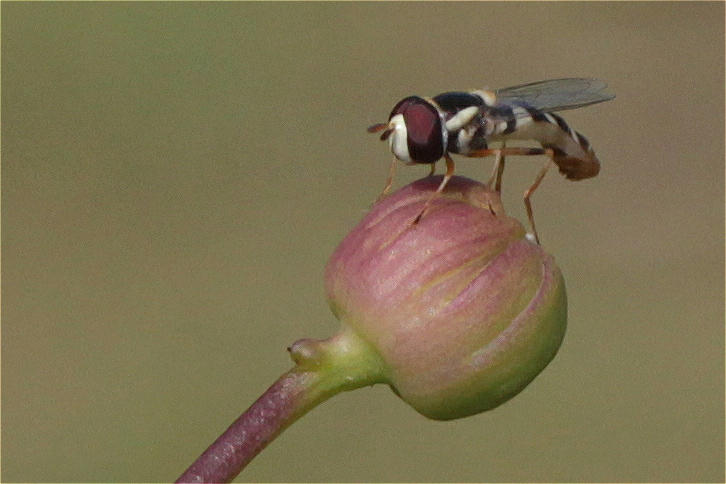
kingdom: Animalia
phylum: Arthropoda
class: Insecta
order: Diptera
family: Syrphidae
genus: Ischiodon
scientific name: Ischiodon aegyptius
